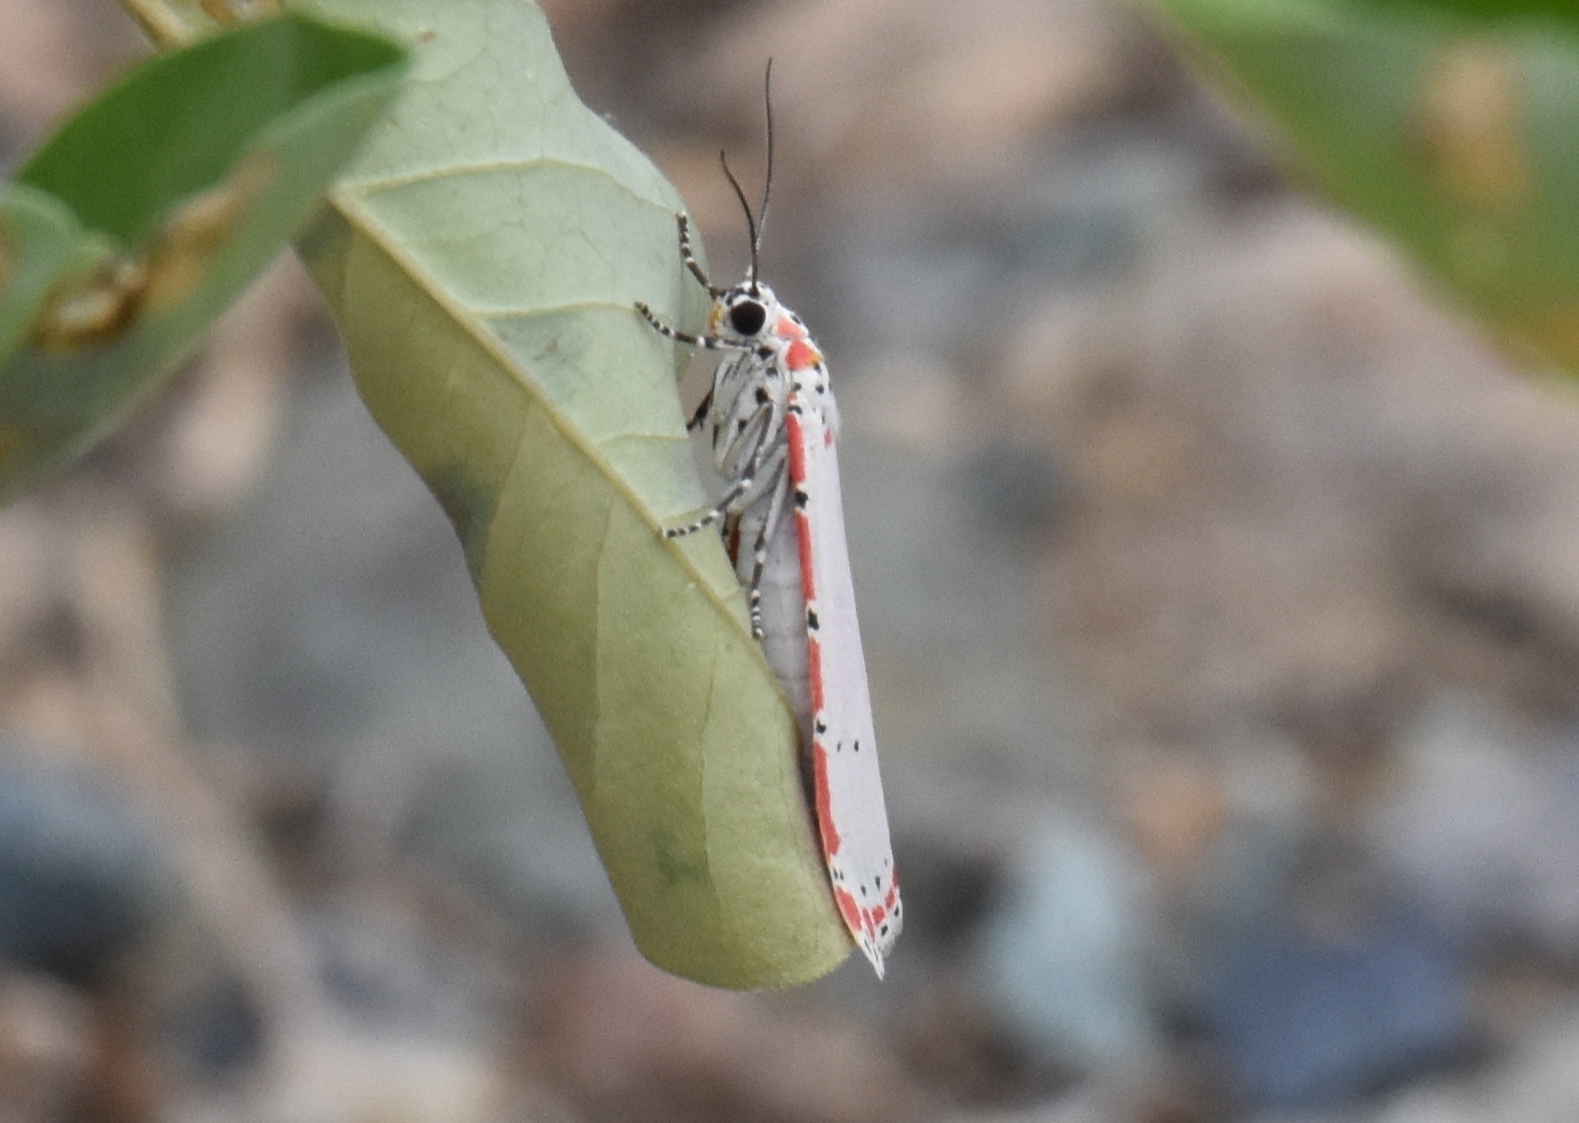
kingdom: Animalia
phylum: Arthropoda
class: Insecta
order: Lepidoptera
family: Erebidae
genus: Utetheisa
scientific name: Utetheisa ornatrix
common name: Beautiful utetheisa
